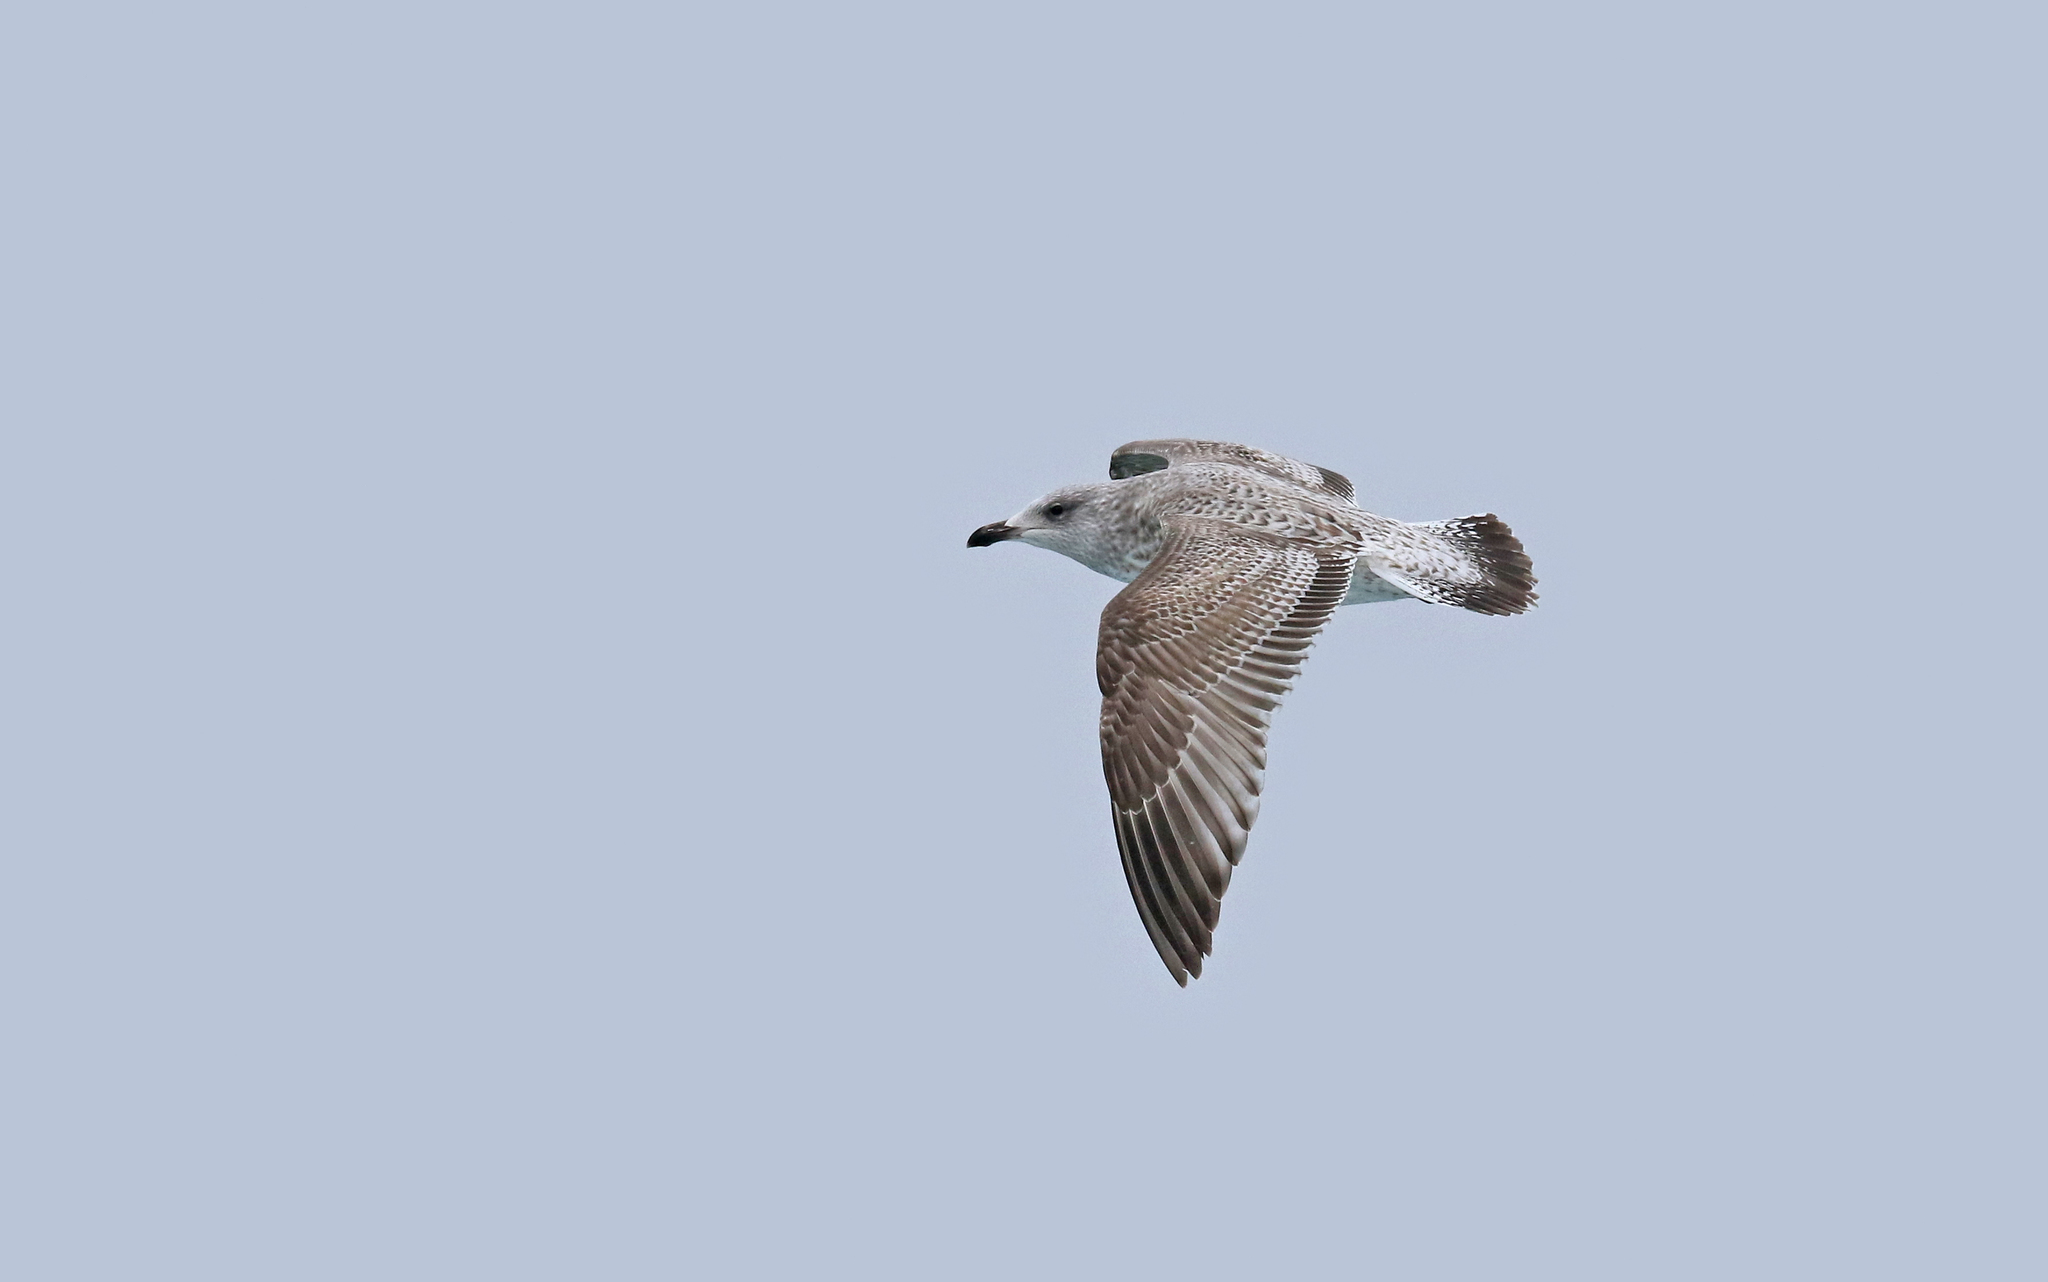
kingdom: Animalia
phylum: Chordata
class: Aves
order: Charadriiformes
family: Laridae
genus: Larus
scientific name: Larus argentatus
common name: Herring gull
